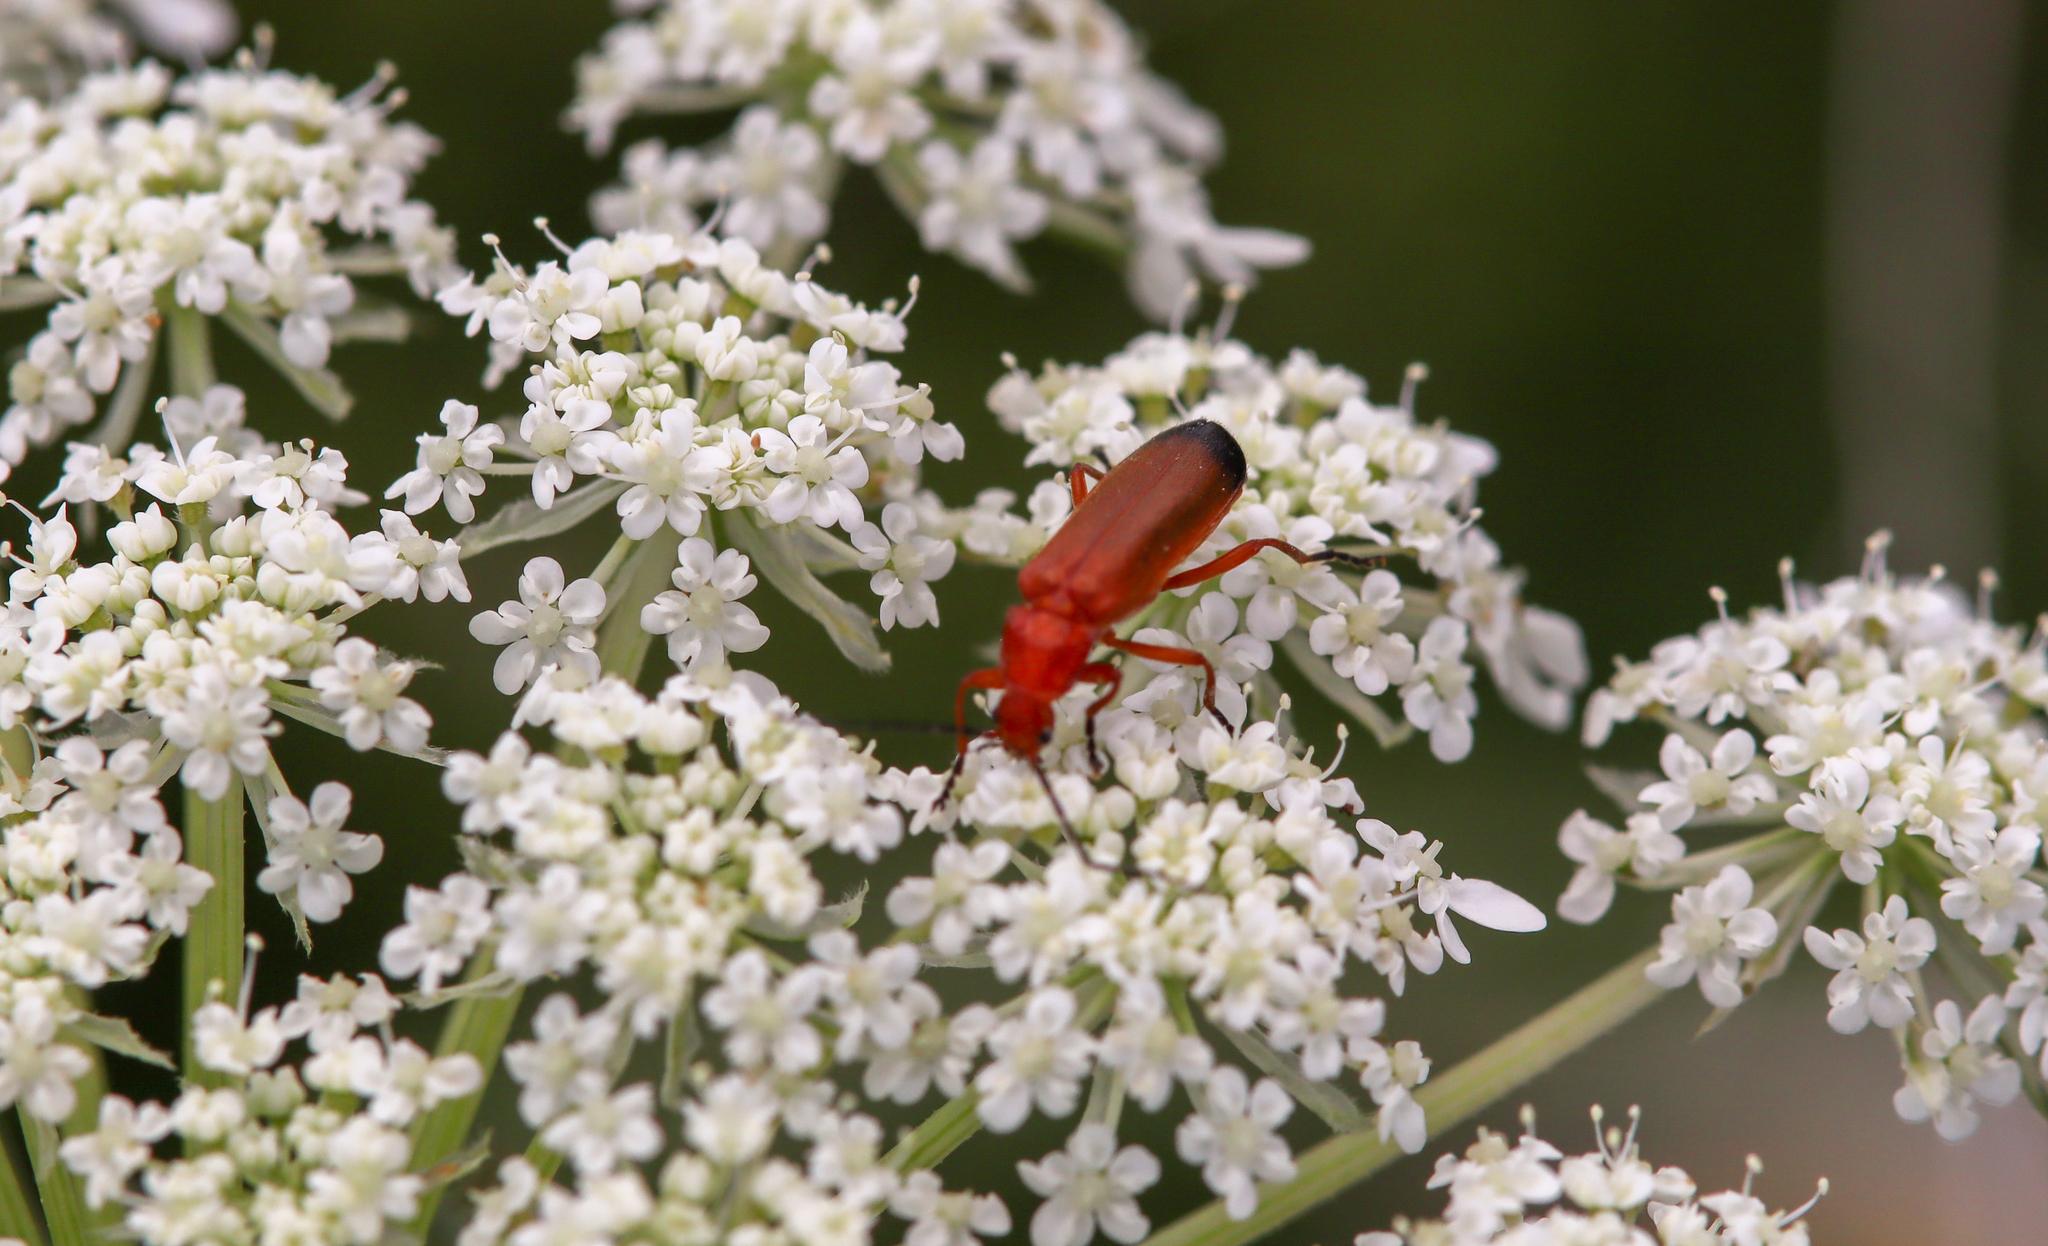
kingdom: Animalia
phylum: Arthropoda
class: Insecta
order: Coleoptera
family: Cantharidae
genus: Rhagonycha
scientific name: Rhagonycha fulva
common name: Common red soldier beetle
